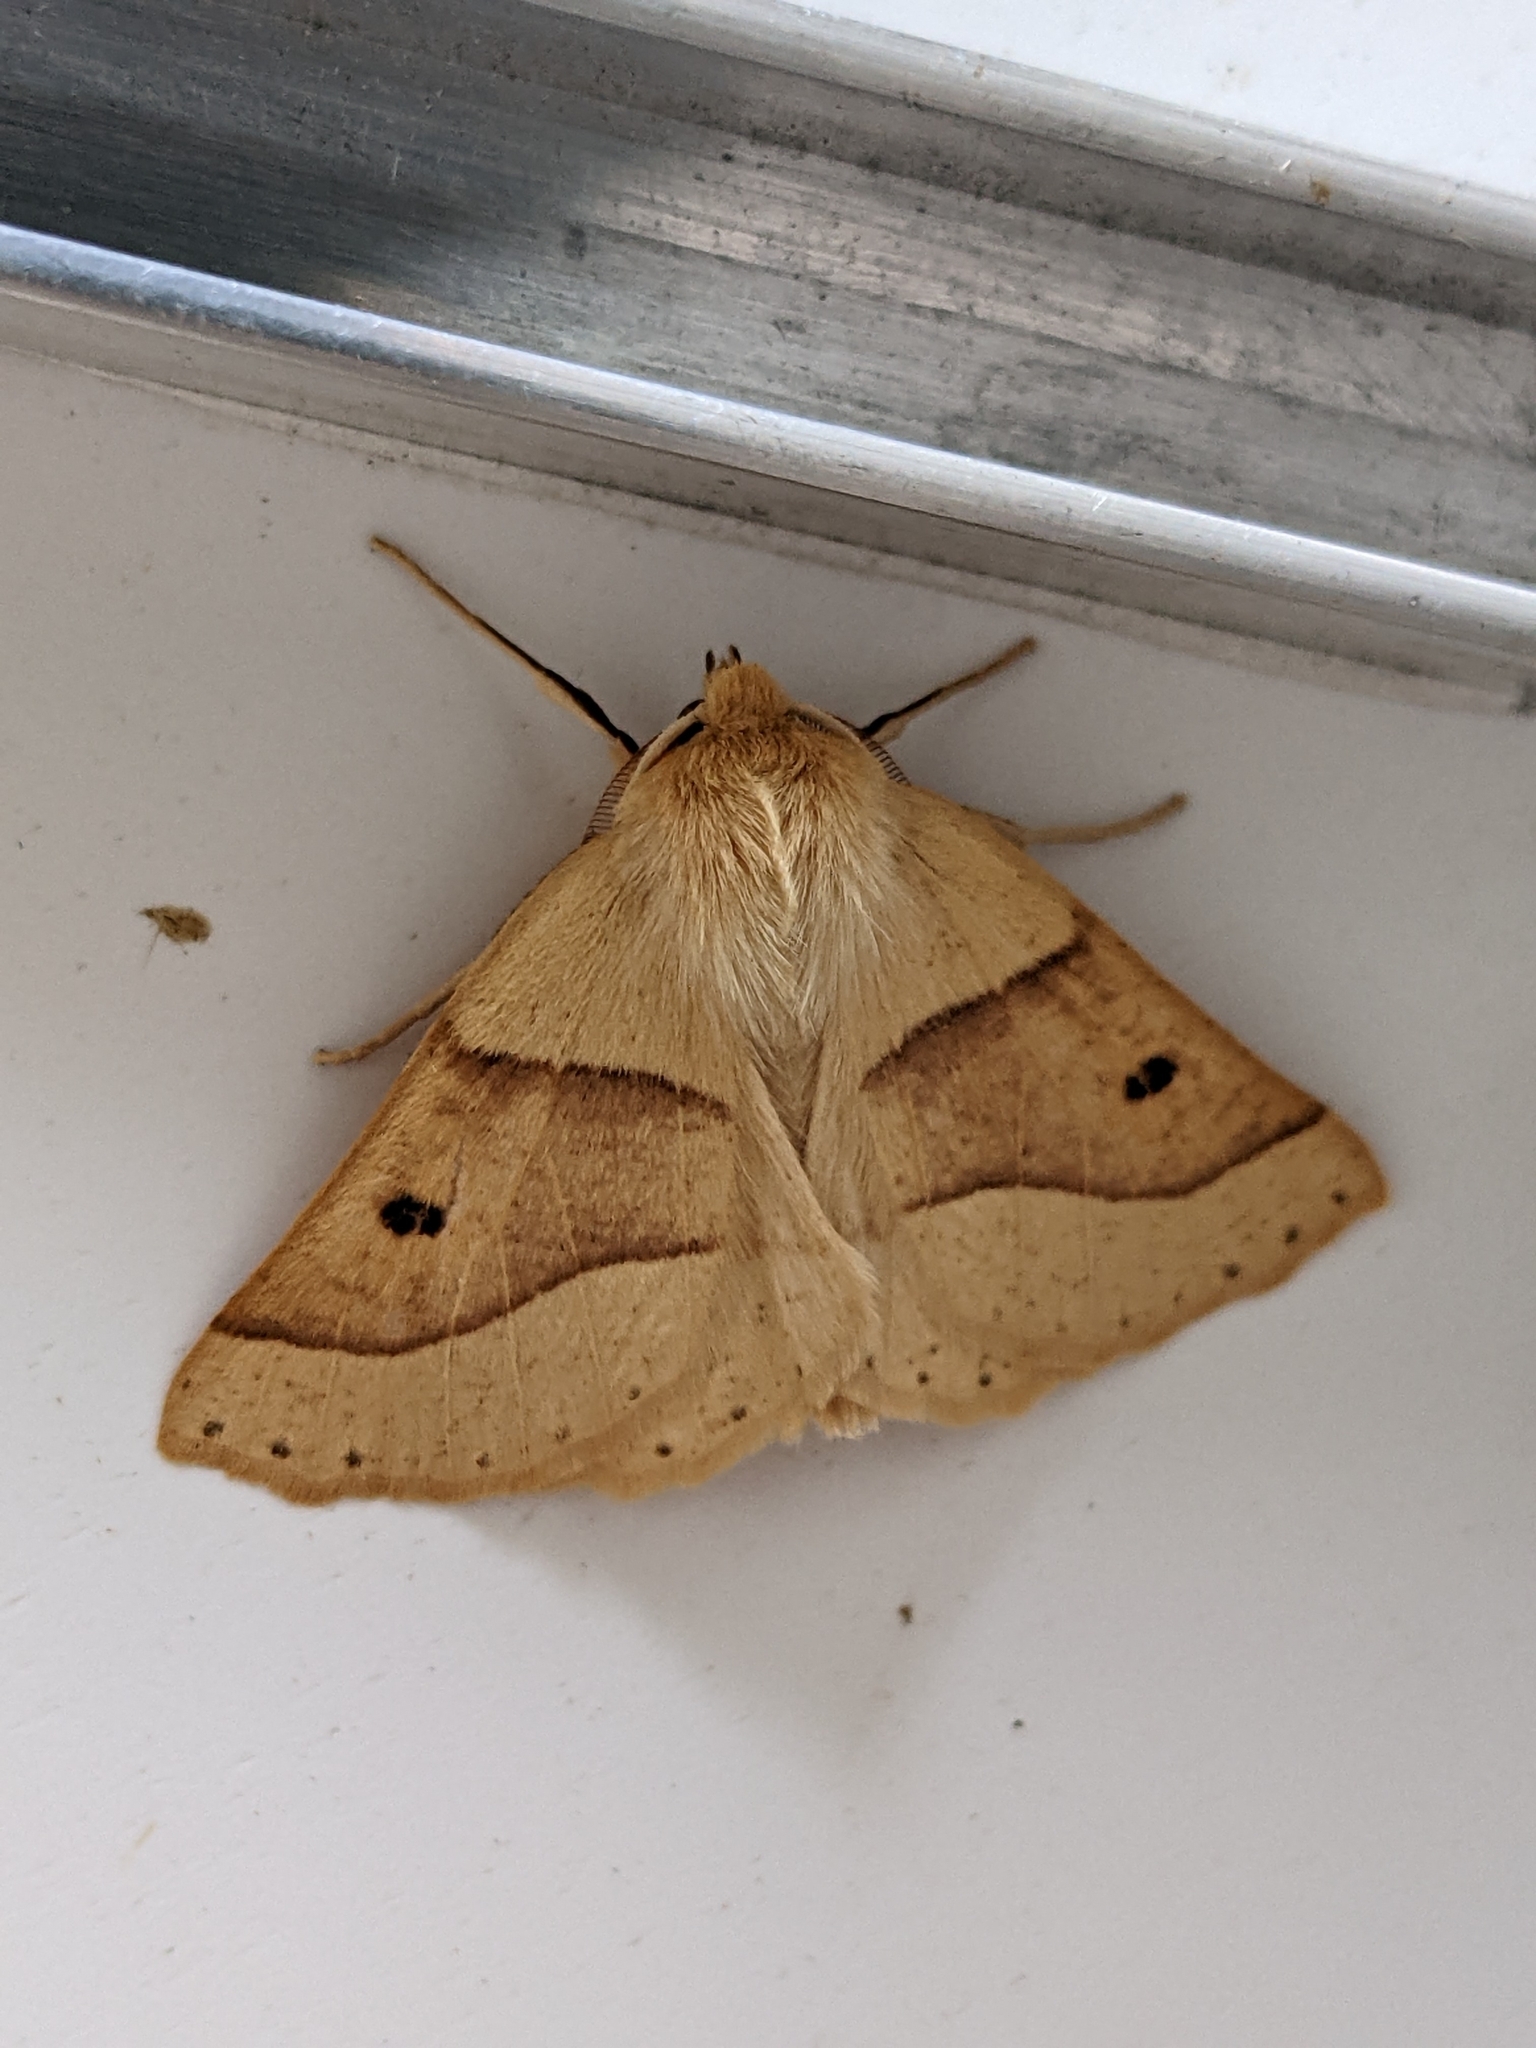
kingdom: Animalia
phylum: Arthropoda
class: Insecta
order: Lepidoptera
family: Geometridae
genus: Crocallis
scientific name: Crocallis elinguaria
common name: Scalloped oak
